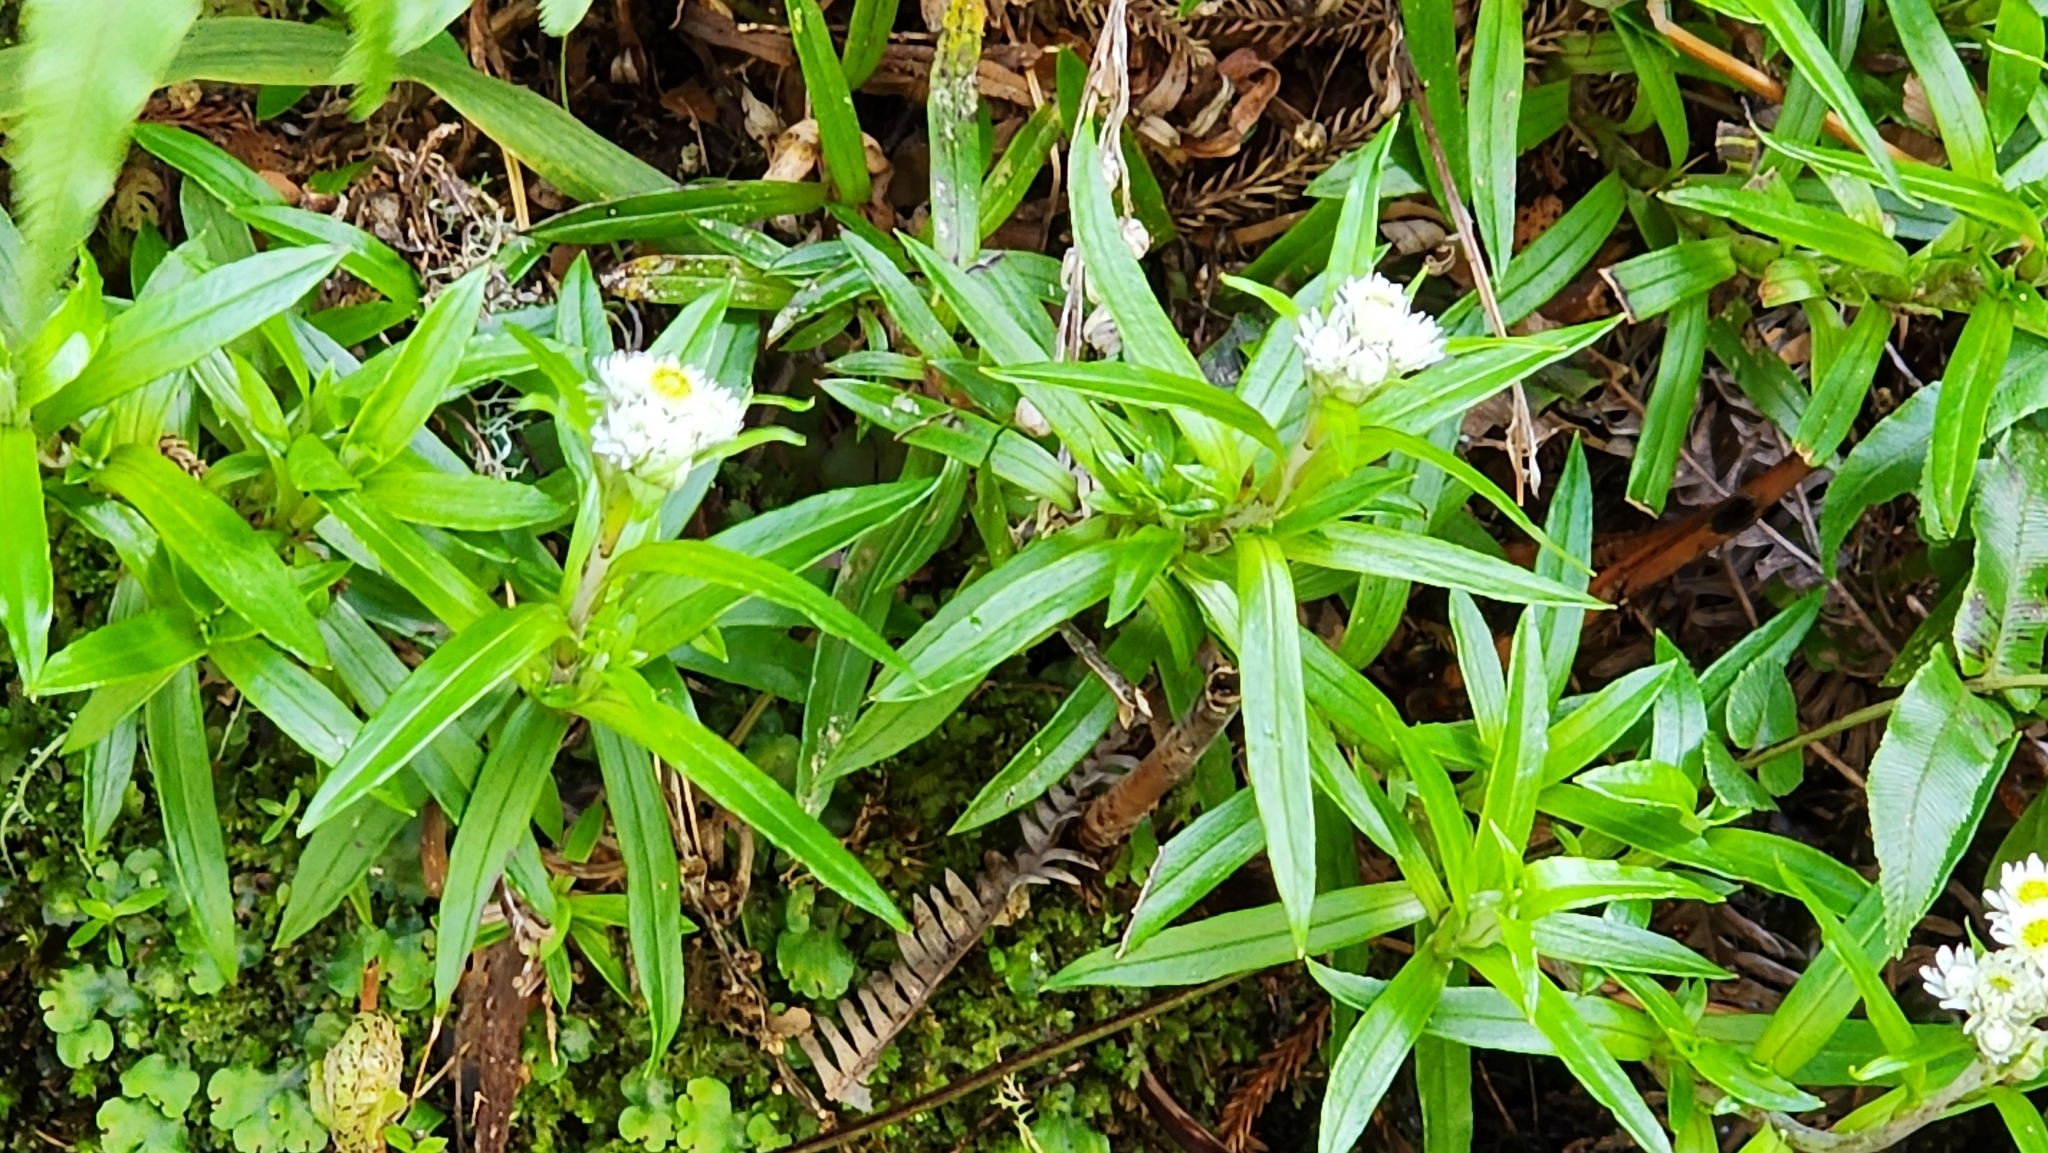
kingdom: Plantae
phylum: Tracheophyta
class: Magnoliopsida
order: Asterales
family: Asteraceae
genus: Anaphalioides
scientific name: Anaphalioides trinervis
